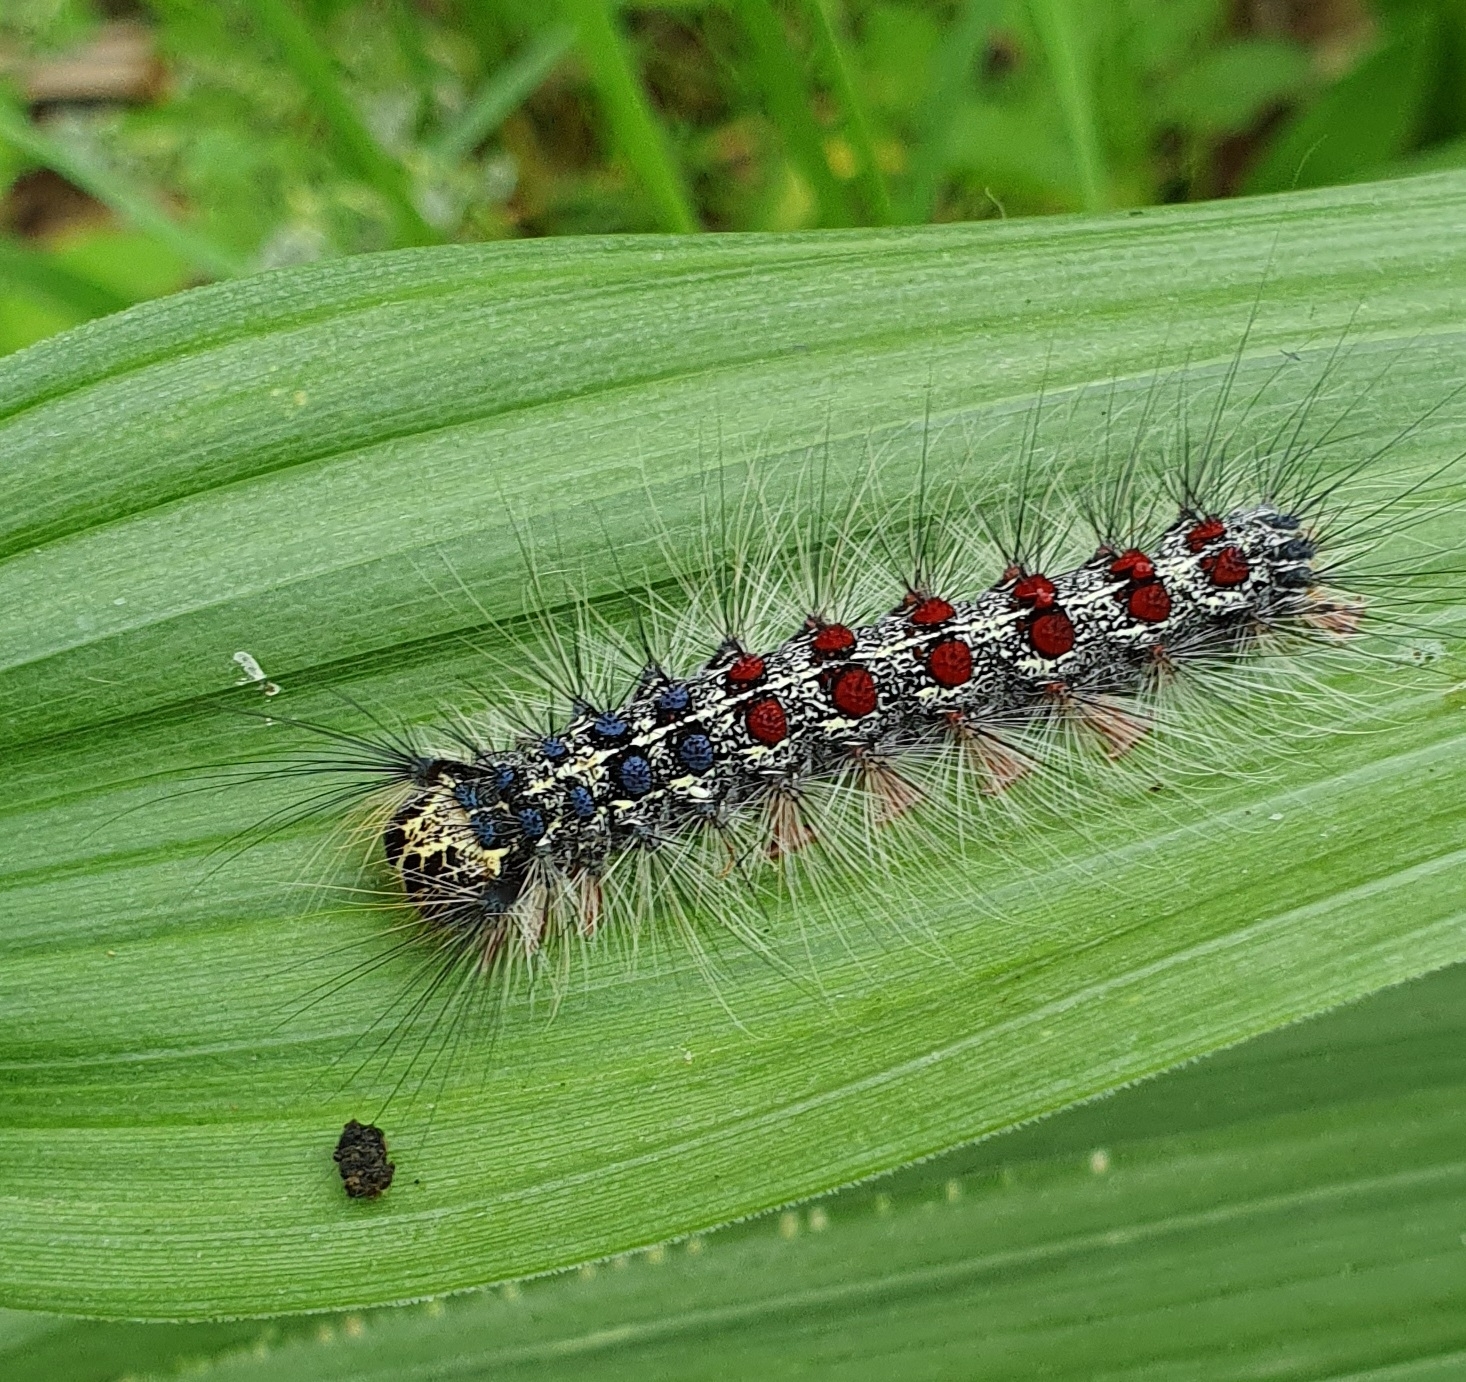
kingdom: Animalia
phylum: Arthropoda
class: Insecta
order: Lepidoptera
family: Erebidae
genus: Lymantria
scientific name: Lymantria dispar
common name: Gypsy moth
